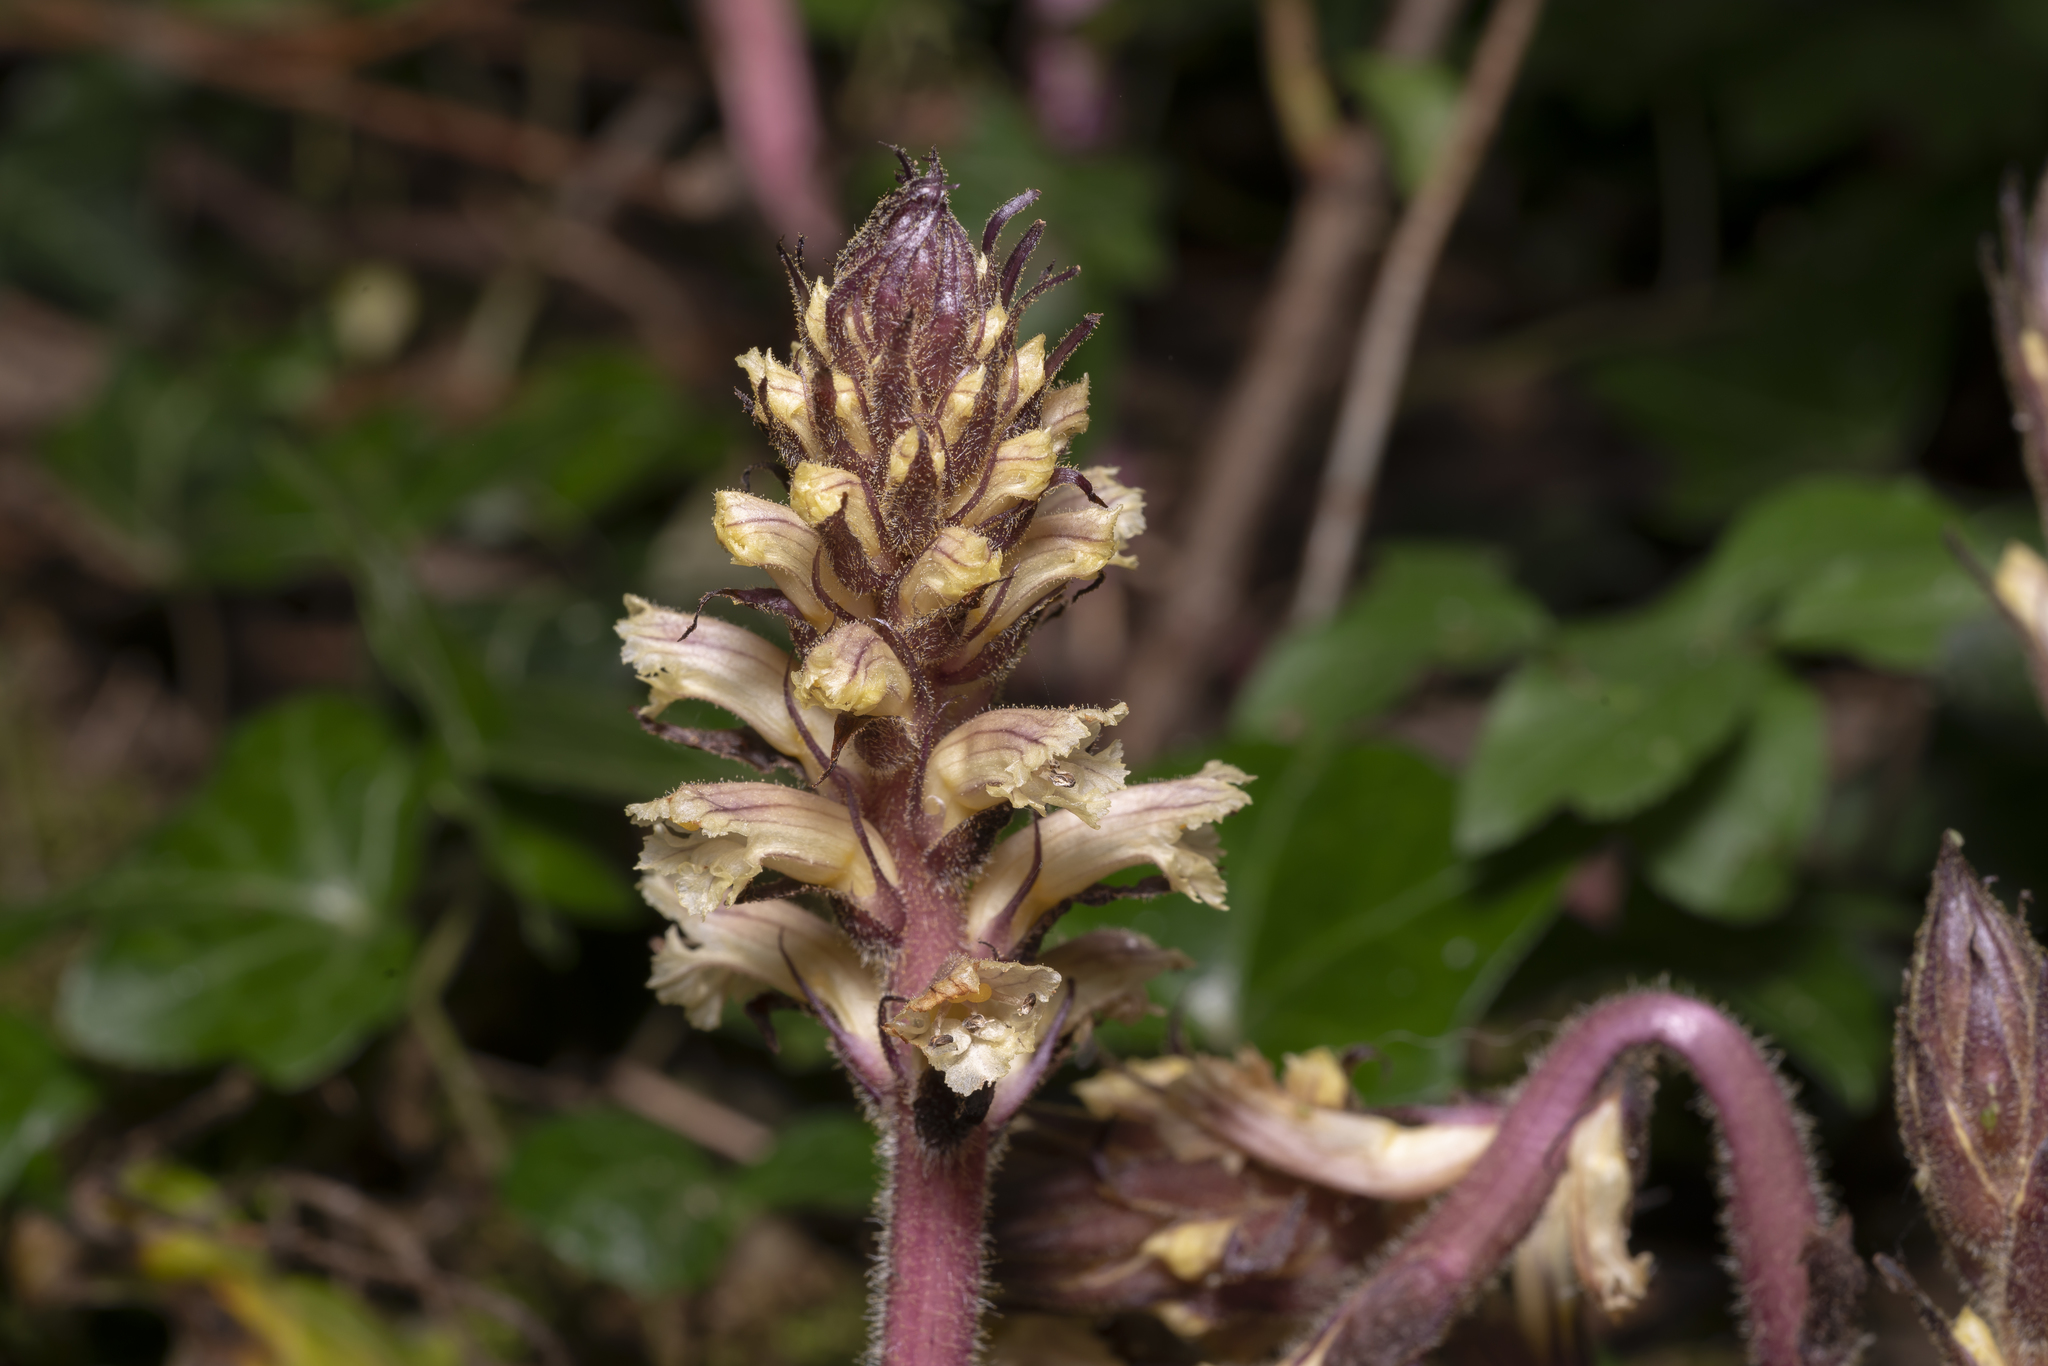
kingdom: Plantae
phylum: Tracheophyta
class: Magnoliopsida
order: Lamiales
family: Orobanchaceae
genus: Orobanche
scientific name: Orobanche hederae
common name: Ivy broomrape
